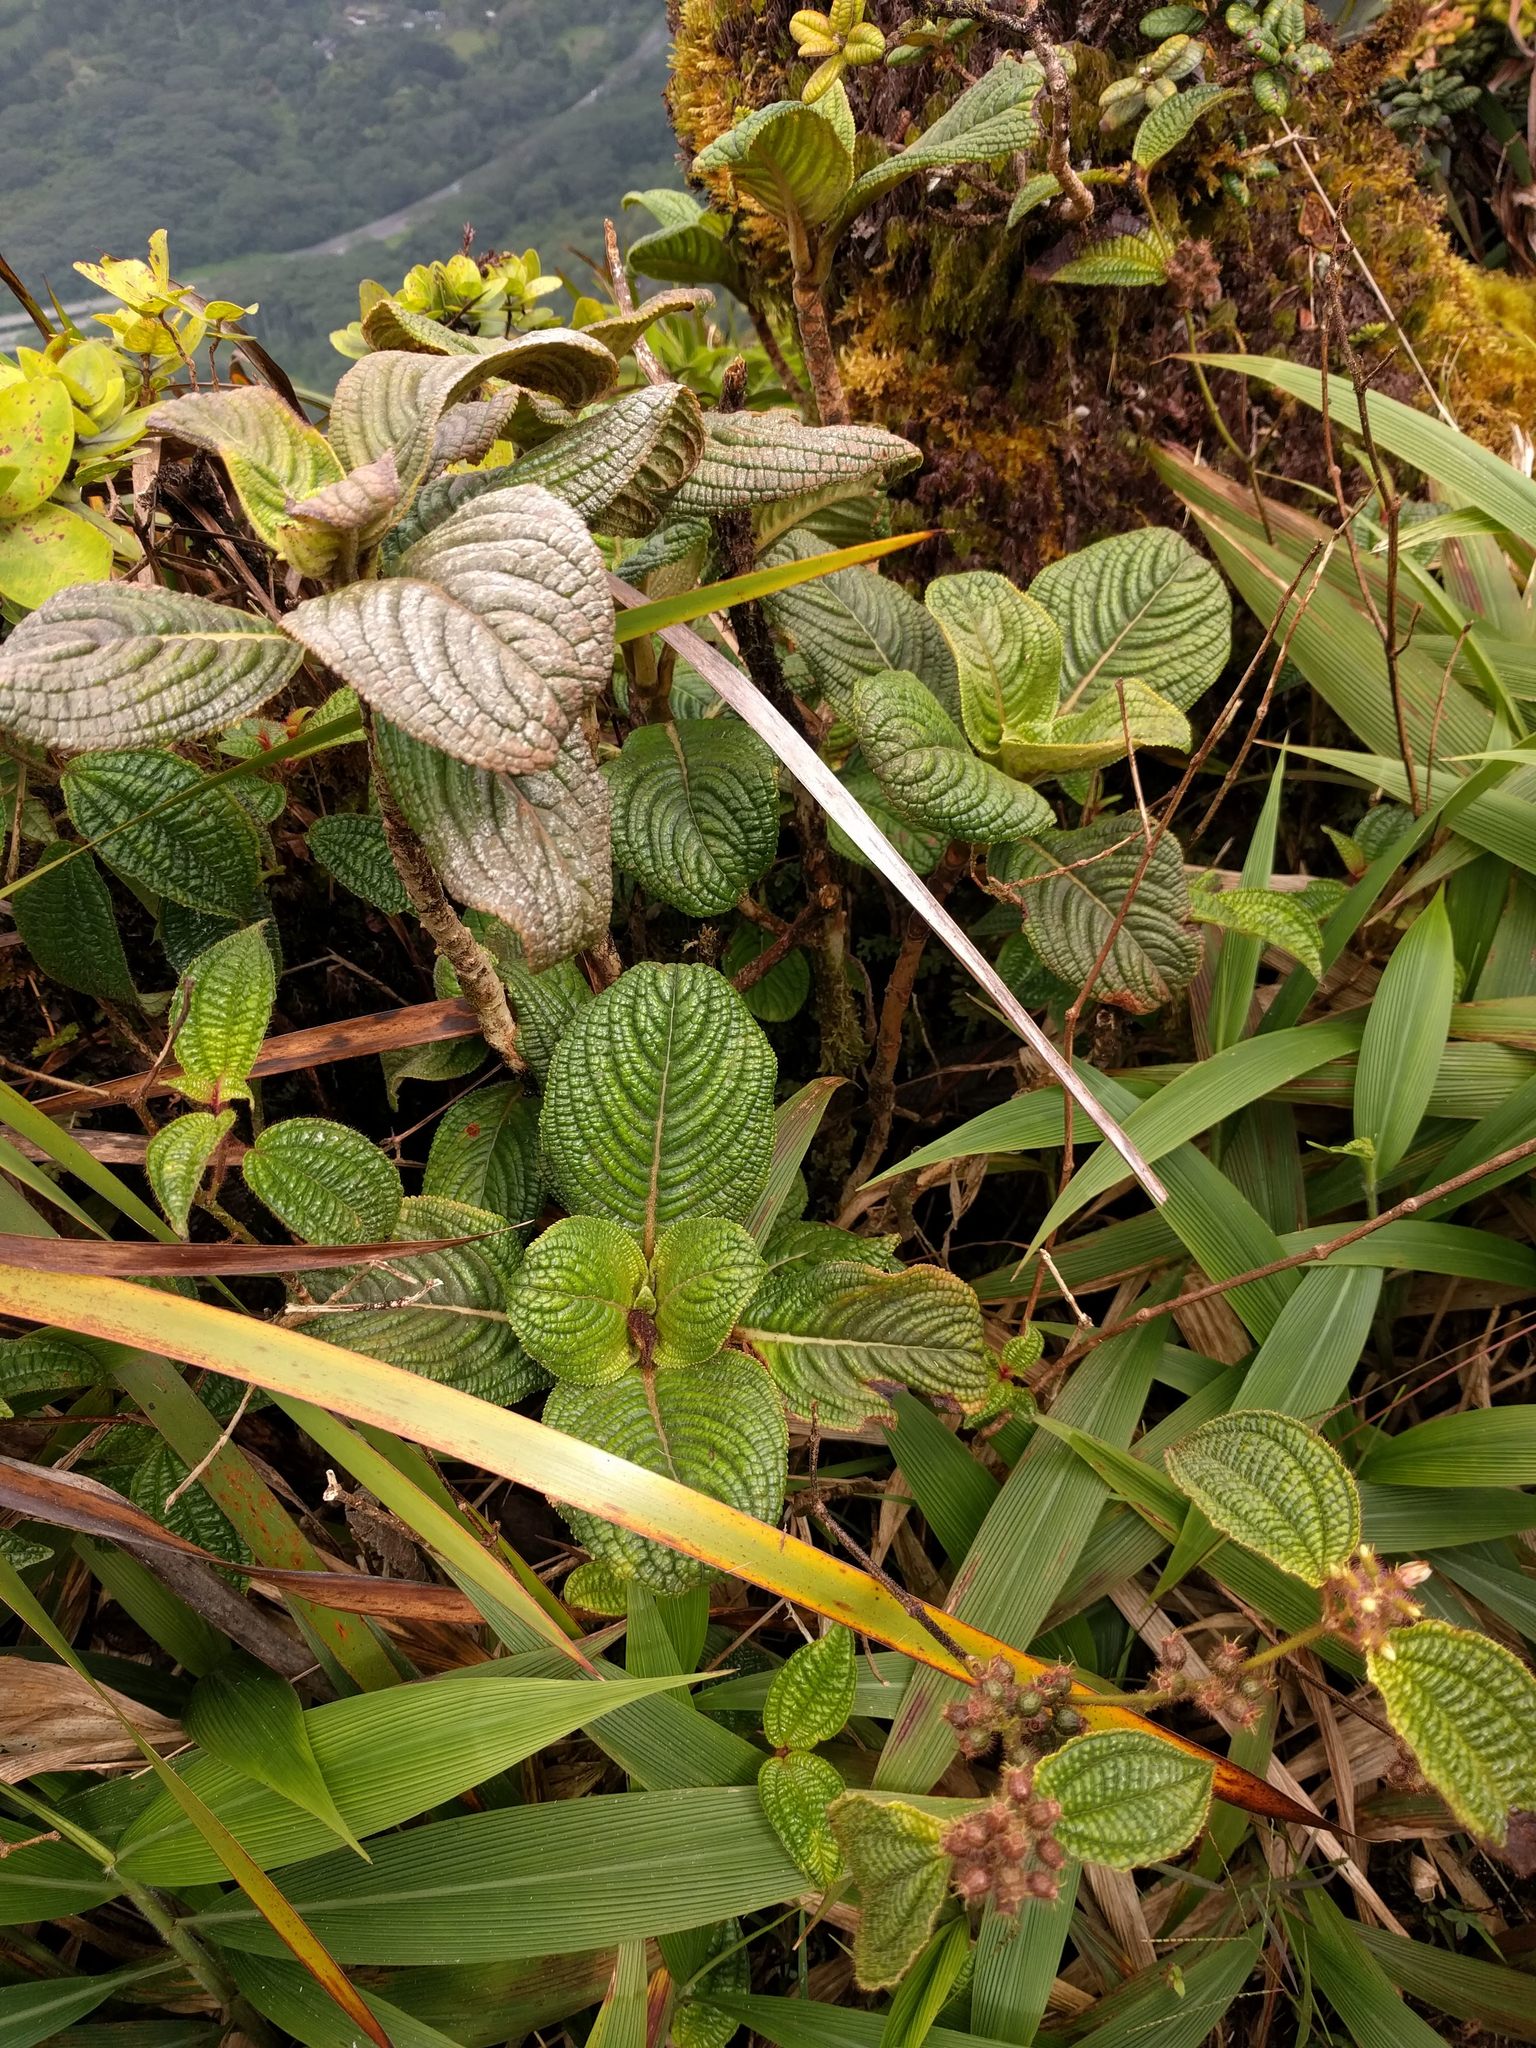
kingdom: Plantae
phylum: Tracheophyta
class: Magnoliopsida
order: Cornales
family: Hydrangeaceae
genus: Hydrangea
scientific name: Hydrangea arguta
